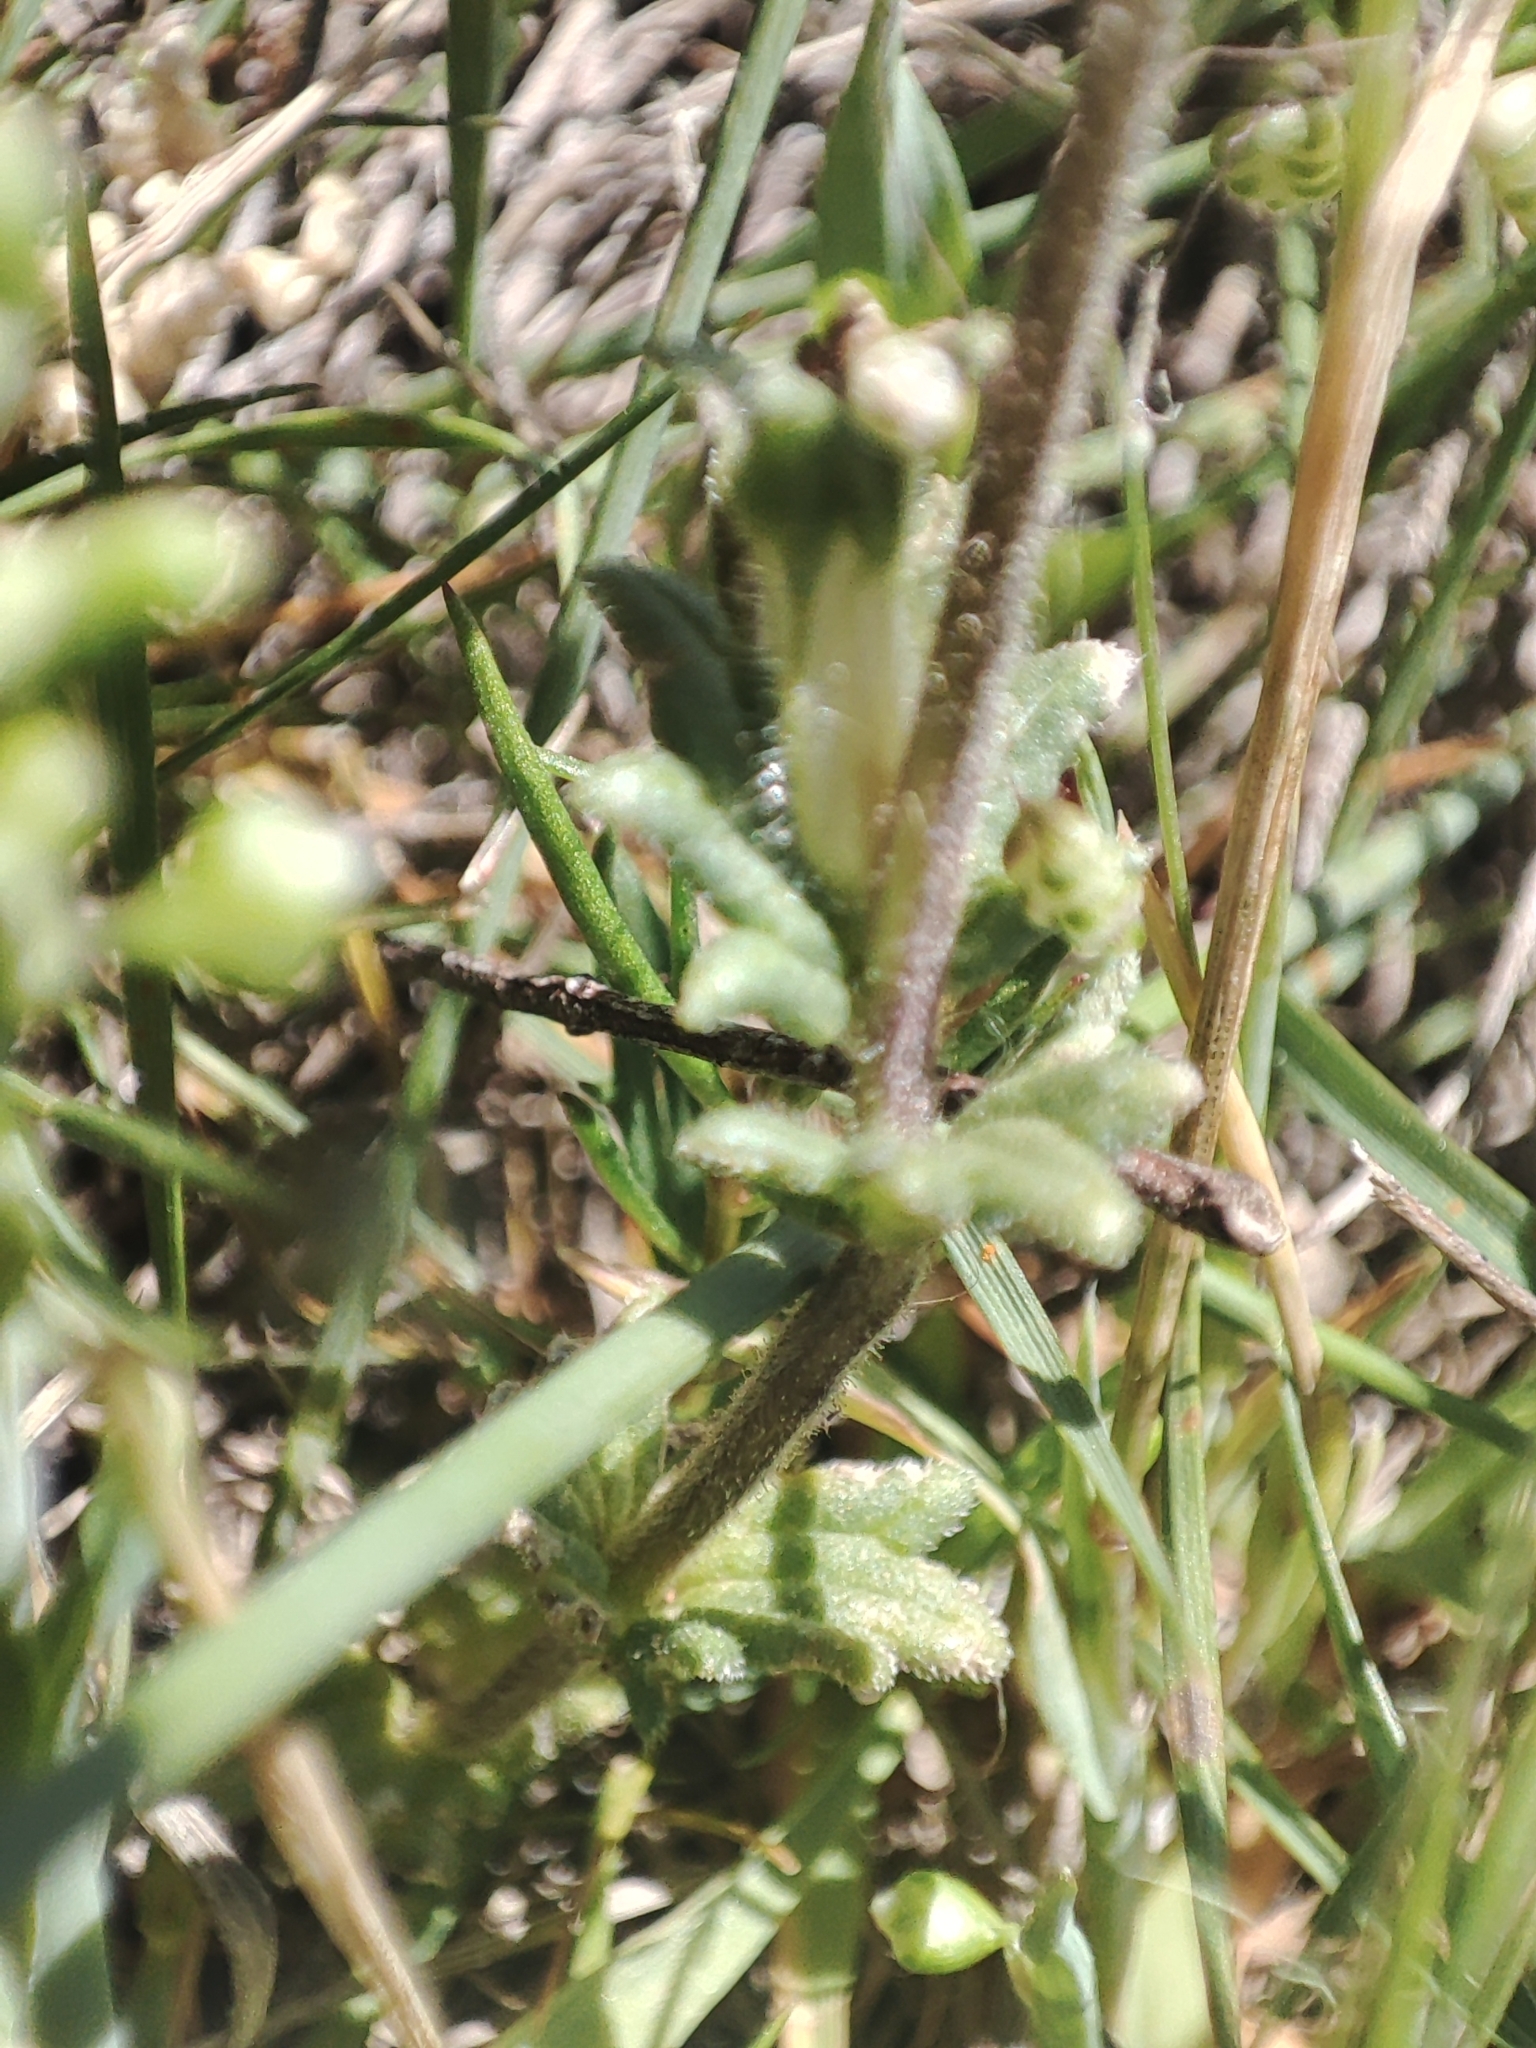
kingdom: Plantae
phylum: Tracheophyta
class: Magnoliopsida
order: Lamiales
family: Orobanchaceae
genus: Parentucellia
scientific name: Parentucellia latifolia
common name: Broadleaf glandweed
